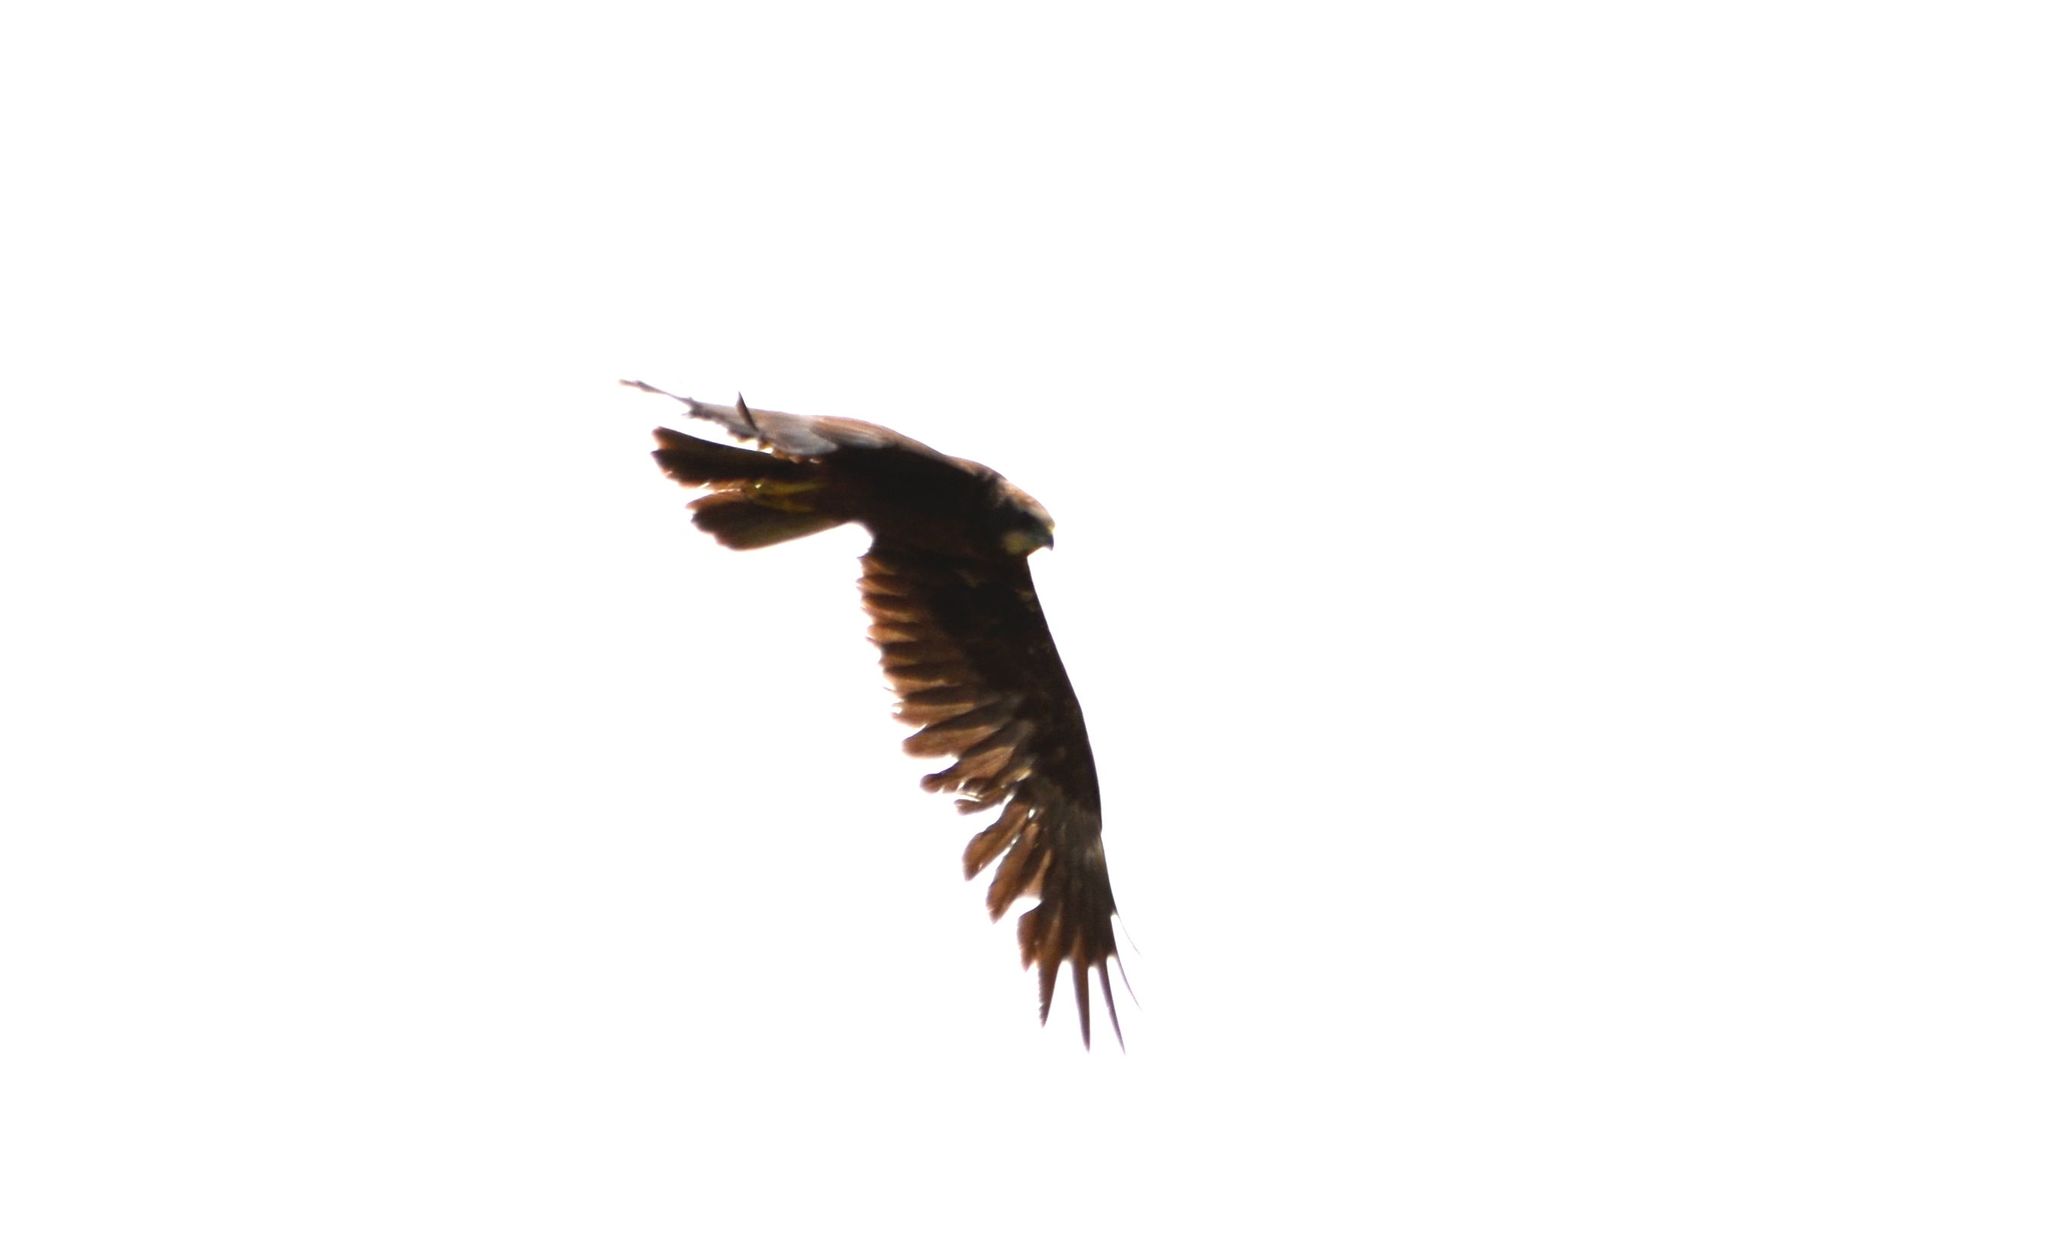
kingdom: Animalia
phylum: Chordata
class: Aves
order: Accipitriformes
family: Accipitridae
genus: Circus
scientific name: Circus aeruginosus
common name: Western marsh harrier
